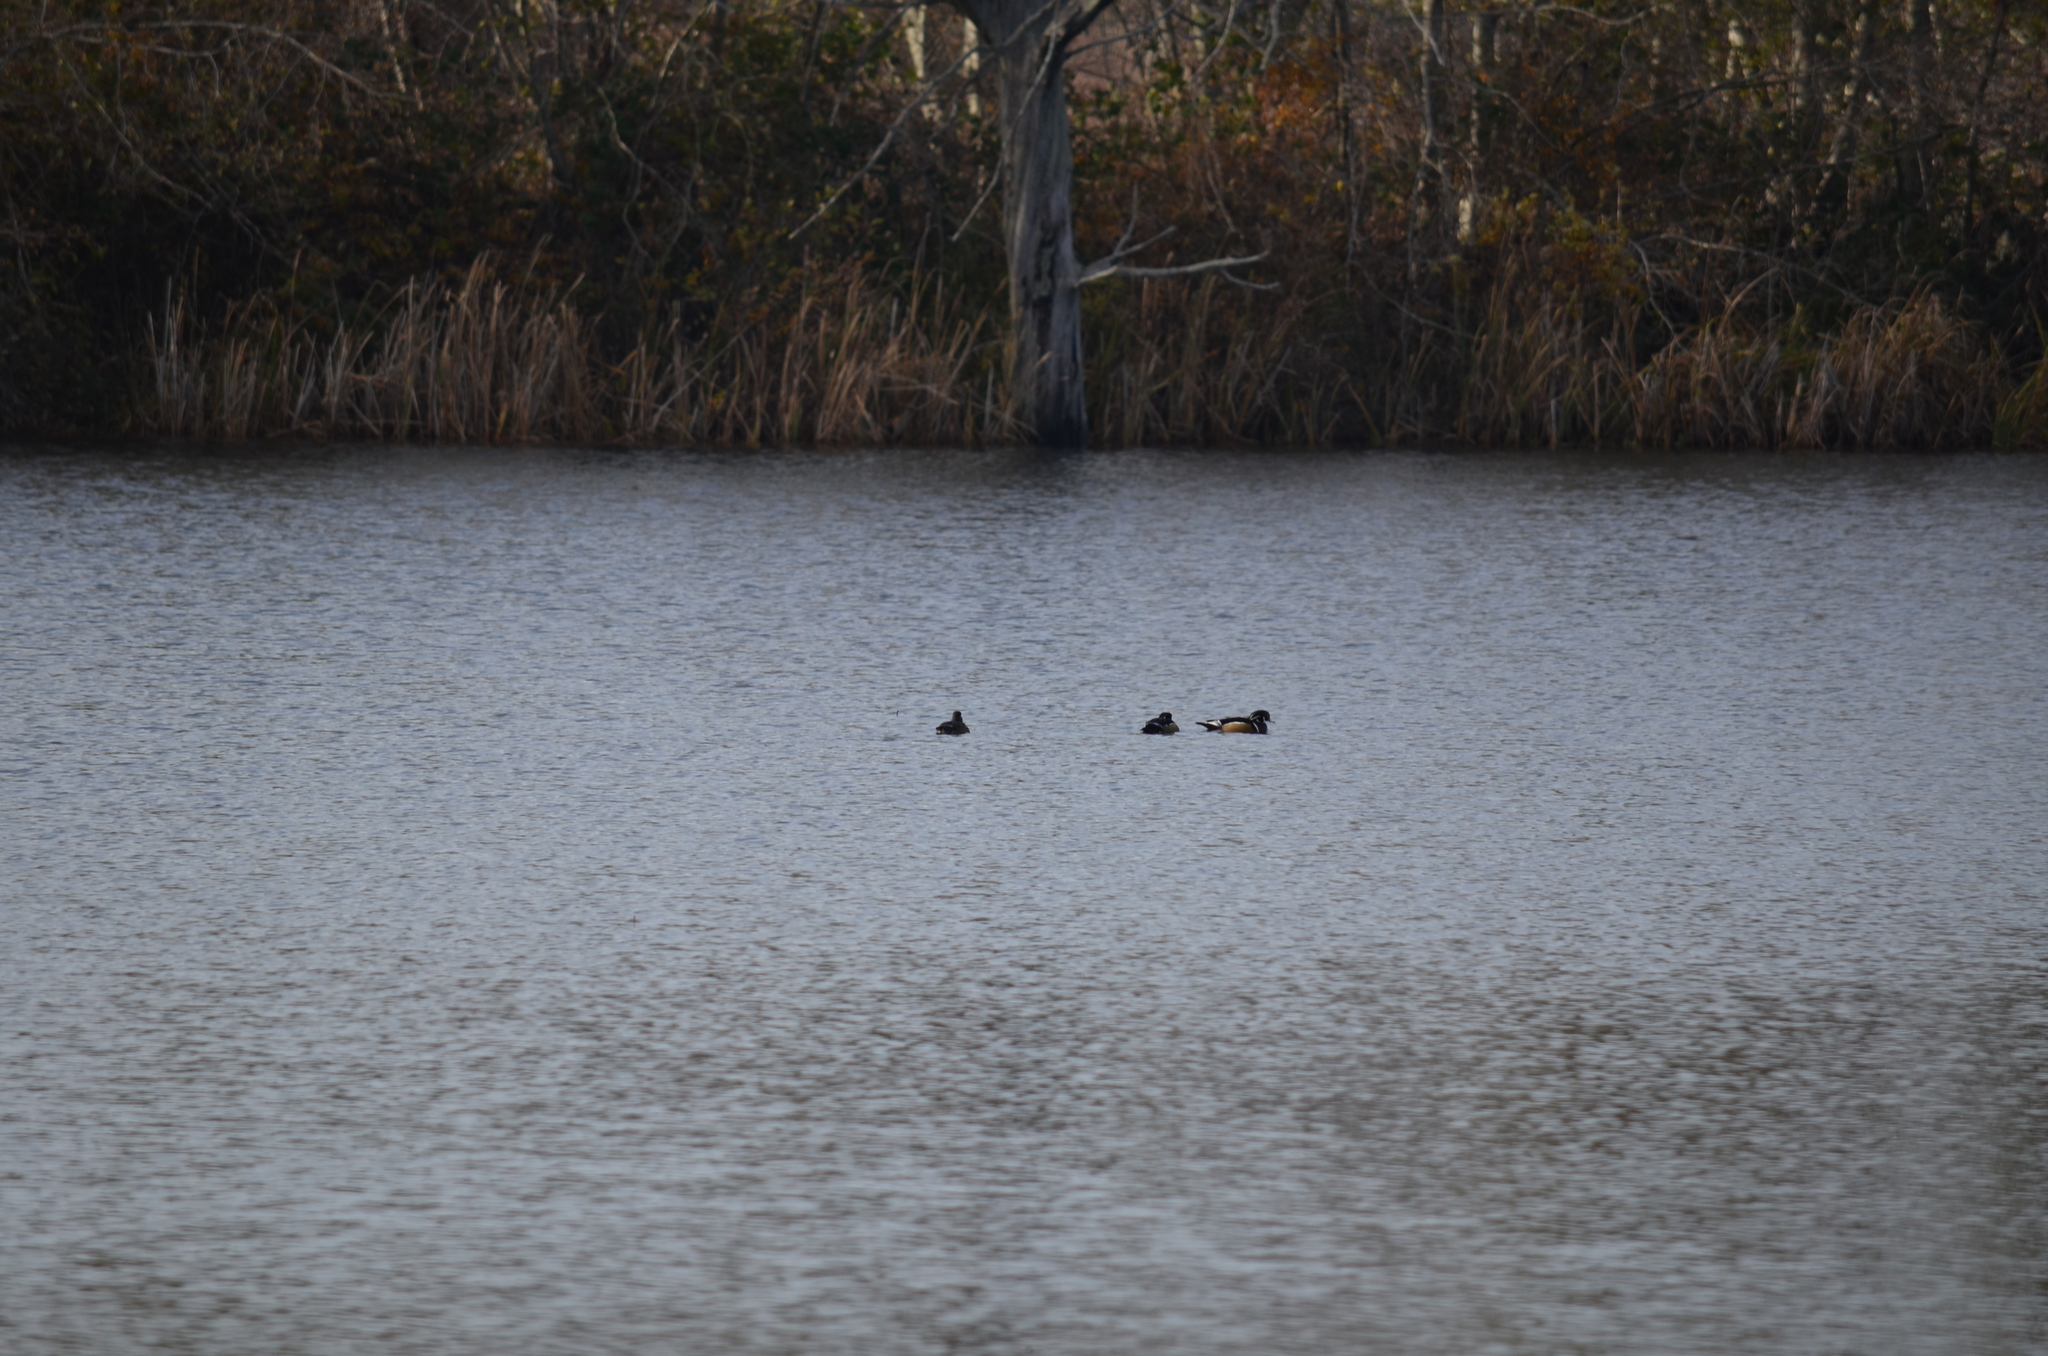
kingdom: Animalia
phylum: Chordata
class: Aves
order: Anseriformes
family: Anatidae
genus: Aix
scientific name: Aix sponsa
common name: Wood duck
